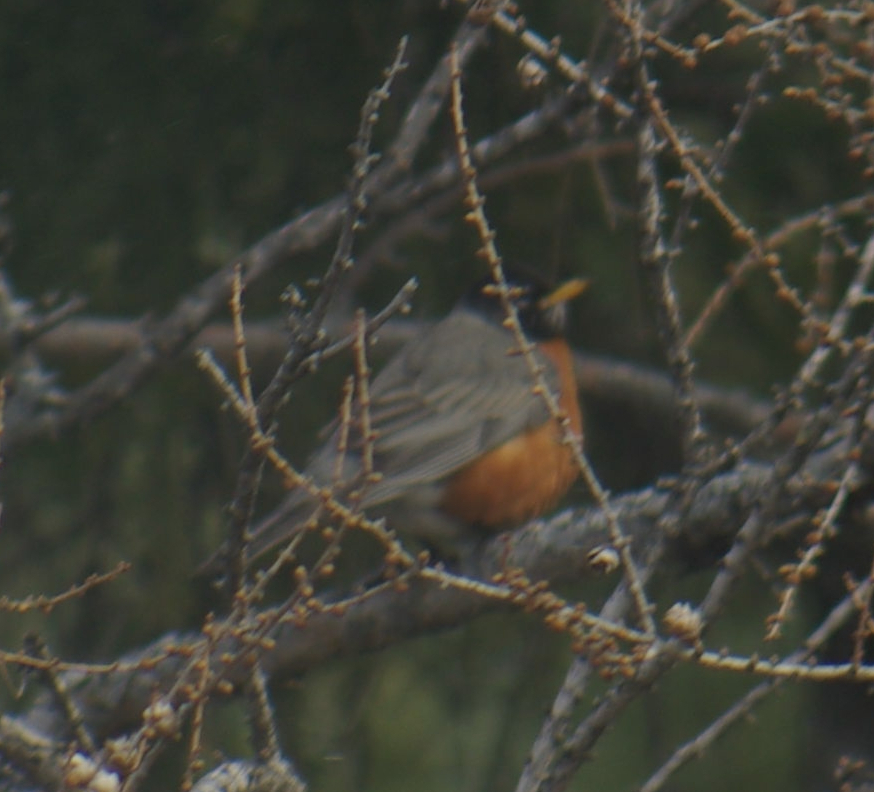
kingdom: Animalia
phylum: Chordata
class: Aves
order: Passeriformes
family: Turdidae
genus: Turdus
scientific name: Turdus migratorius
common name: American robin
